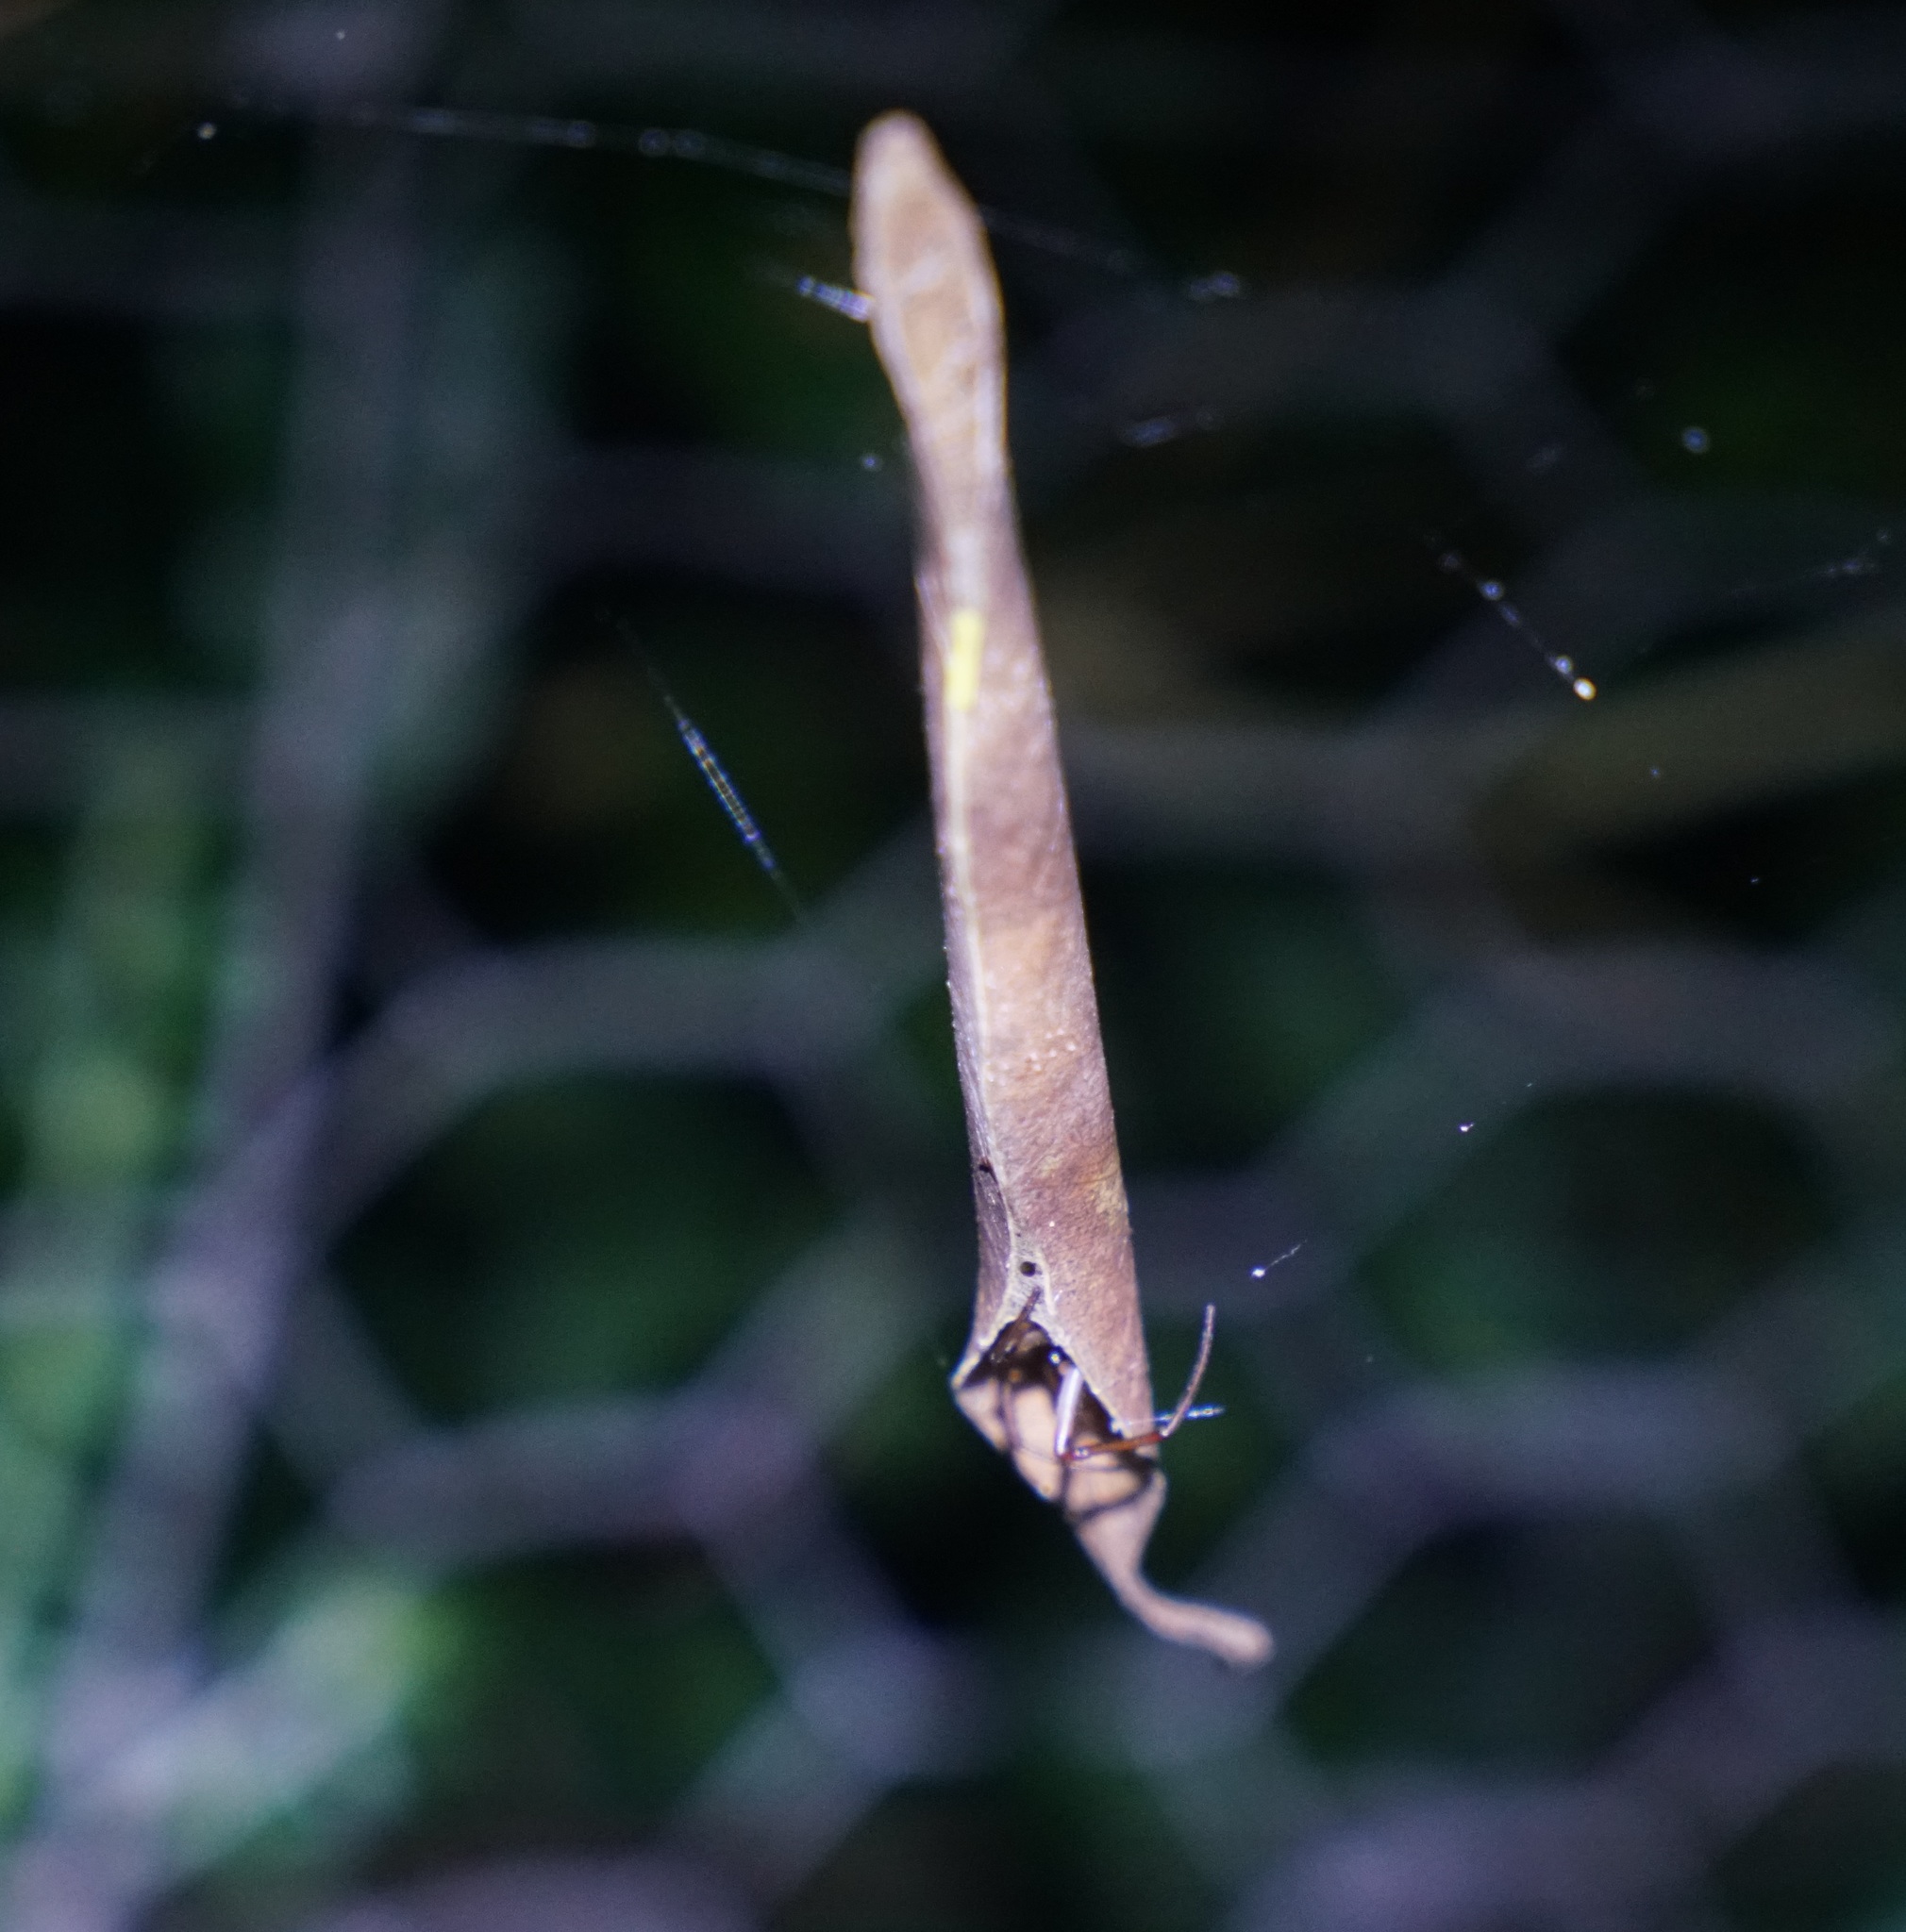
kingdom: Animalia
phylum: Arthropoda
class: Arachnida
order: Araneae
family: Araneidae
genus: Phonognatha
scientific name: Phonognatha graeffei
